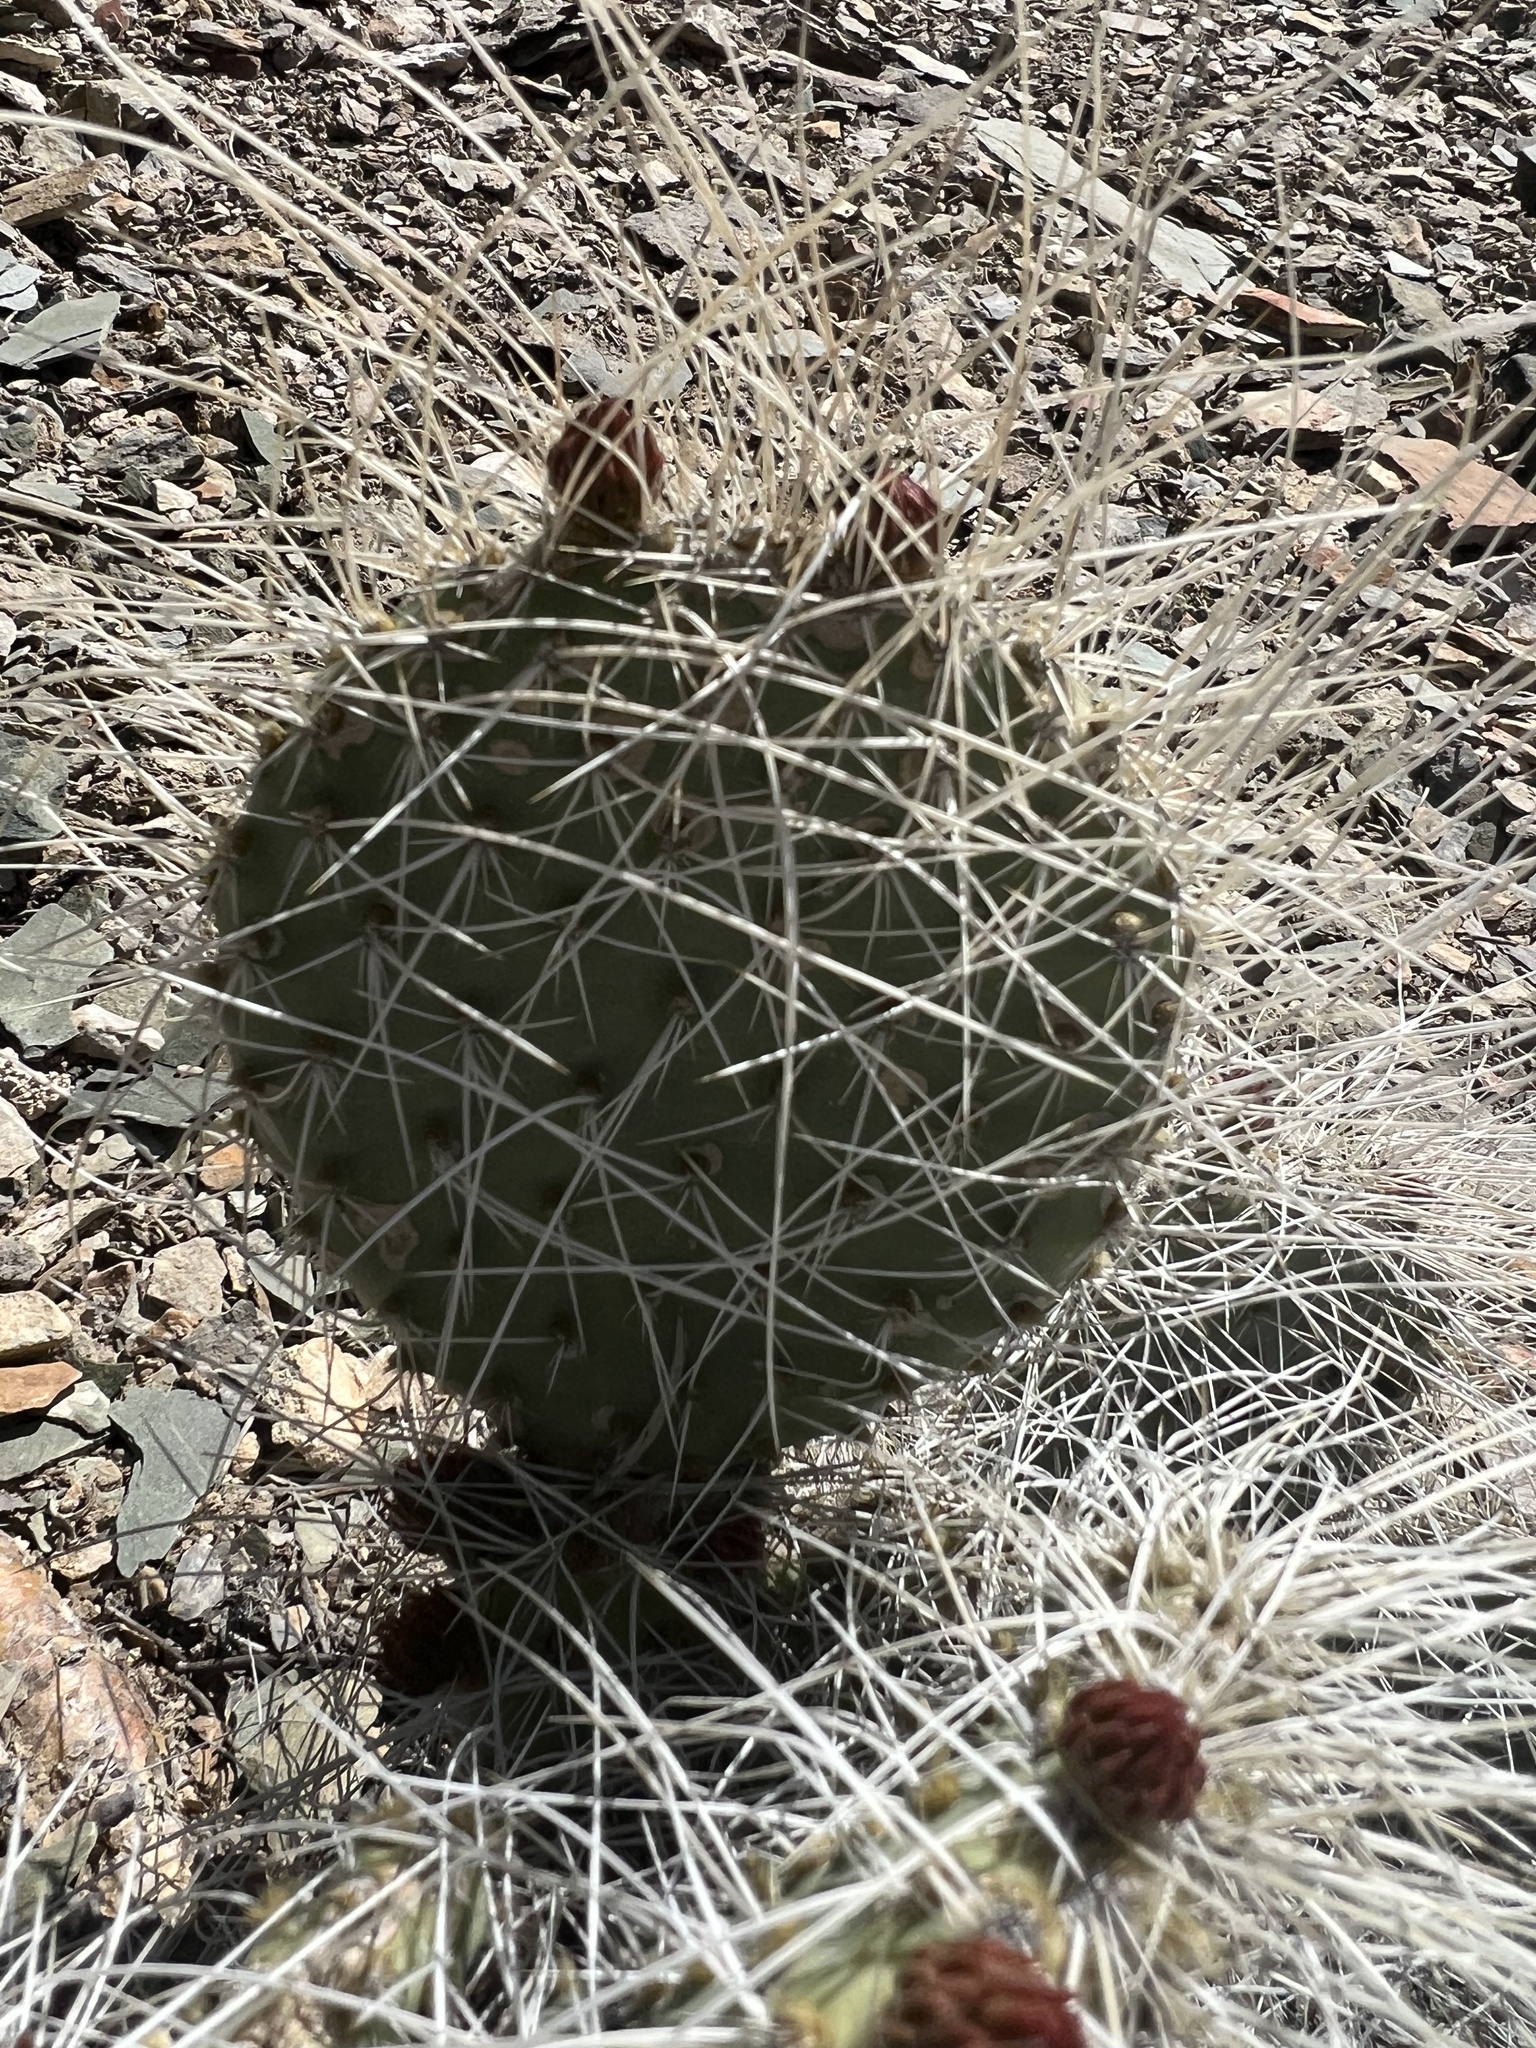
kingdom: Plantae
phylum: Tracheophyta
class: Magnoliopsida
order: Caryophyllales
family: Cactaceae
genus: Opuntia
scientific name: Opuntia polyacantha
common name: Plains prickly-pear
